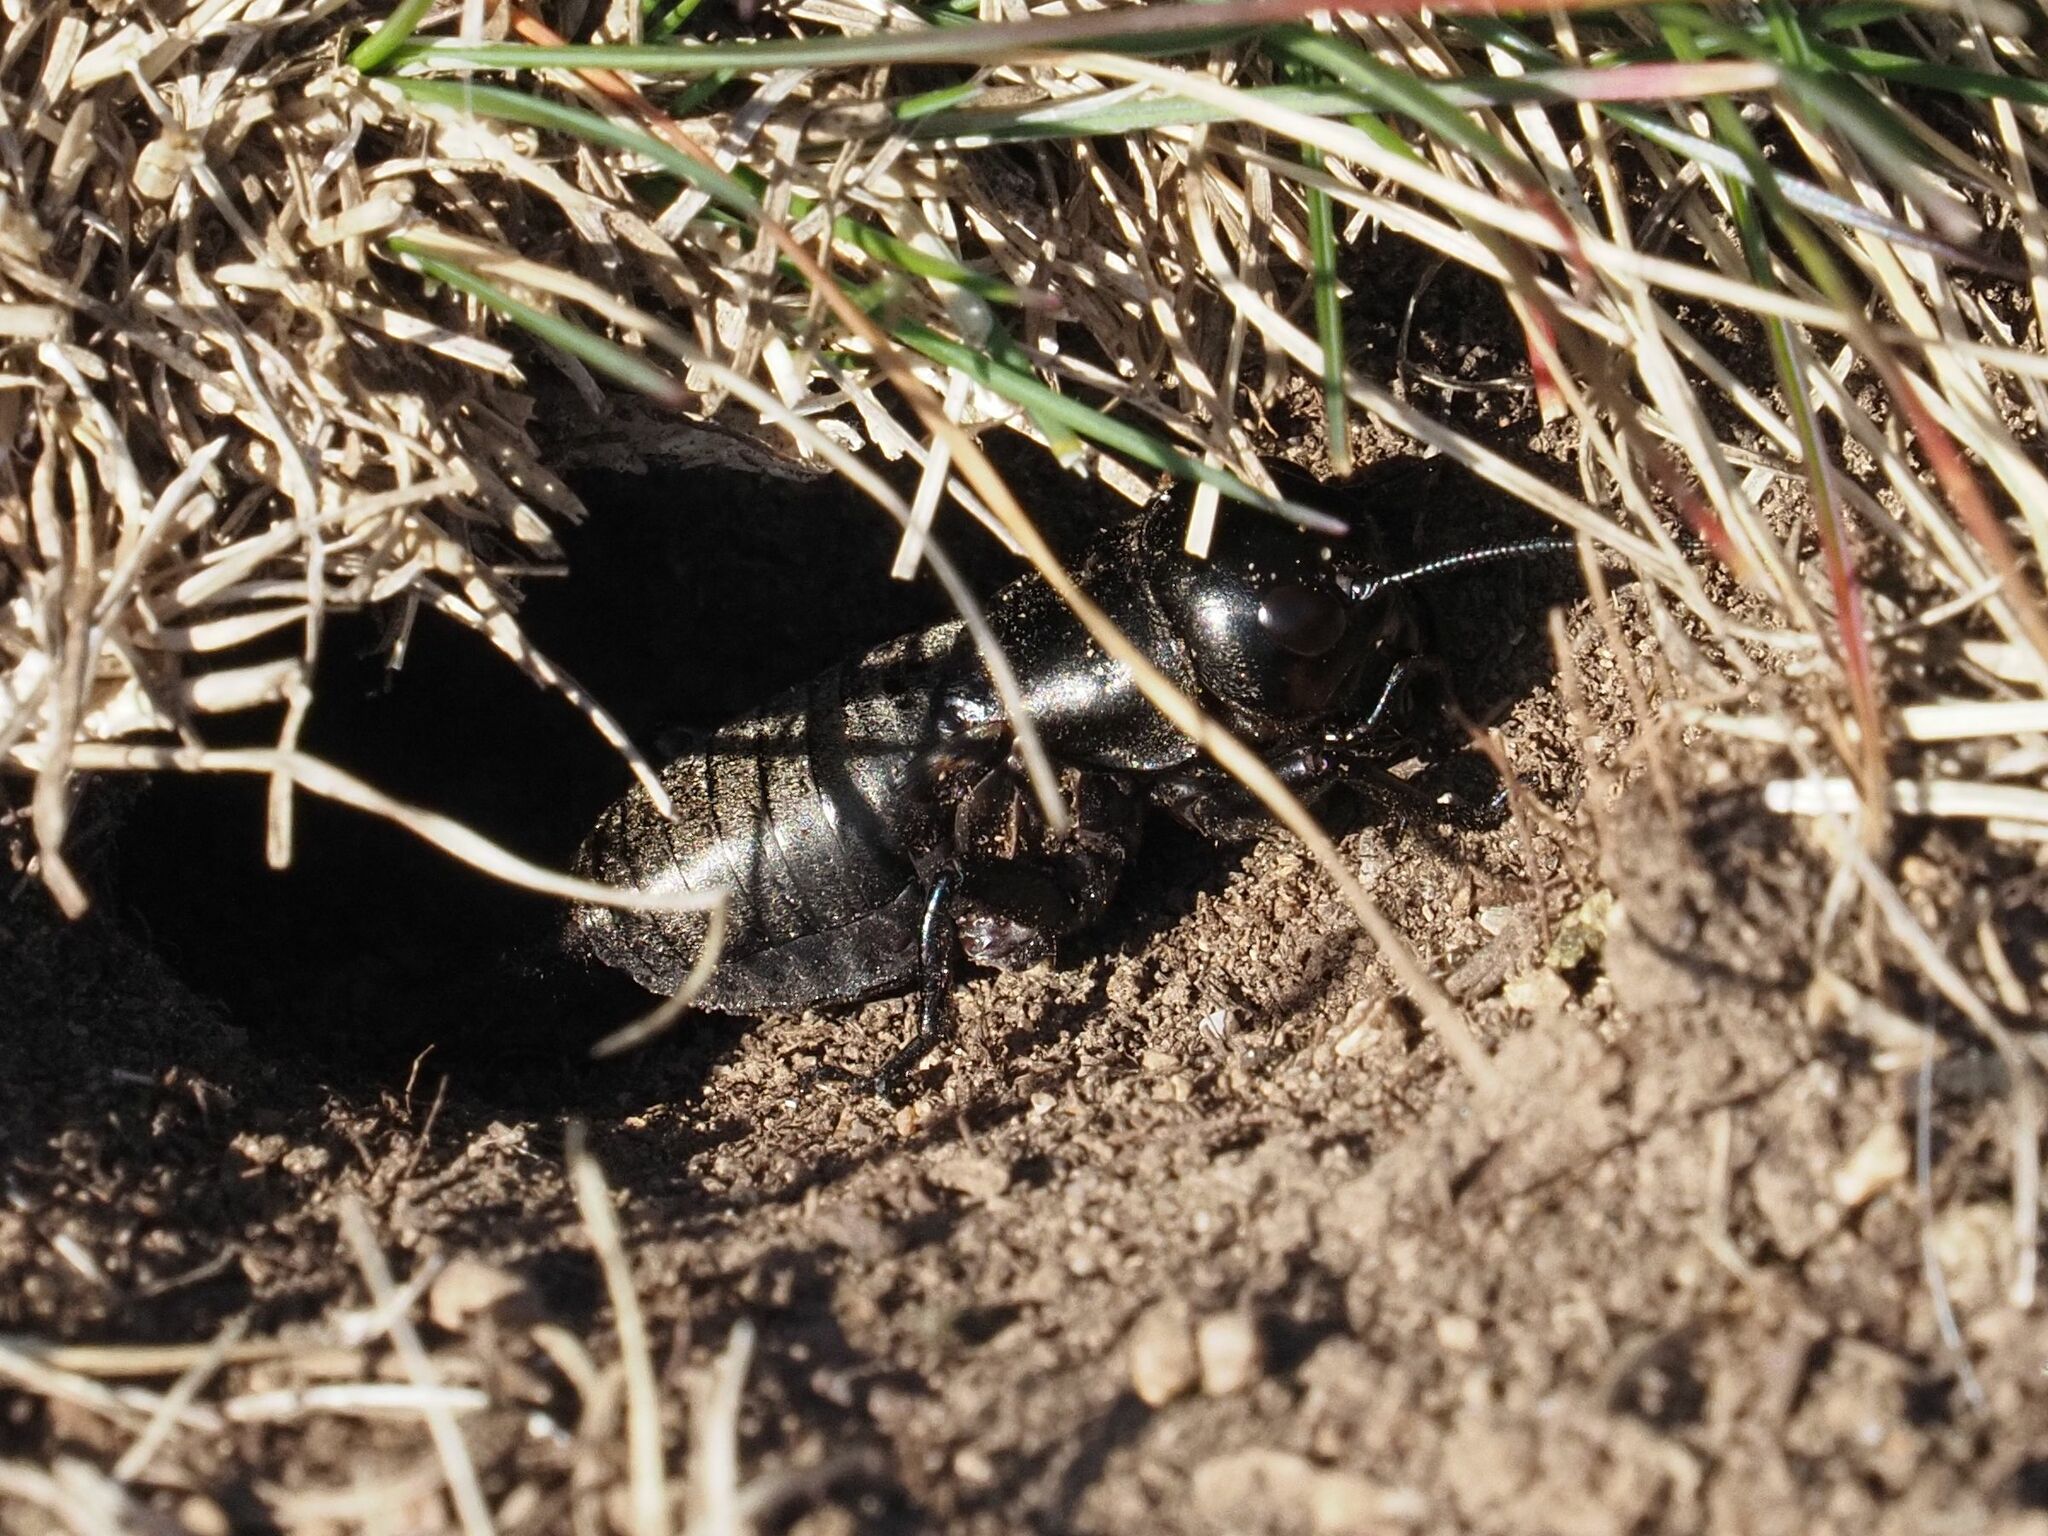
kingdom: Animalia
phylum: Arthropoda
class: Insecta
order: Orthoptera
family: Gryllidae
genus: Gryllus
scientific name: Gryllus campestris
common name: Field cricket
